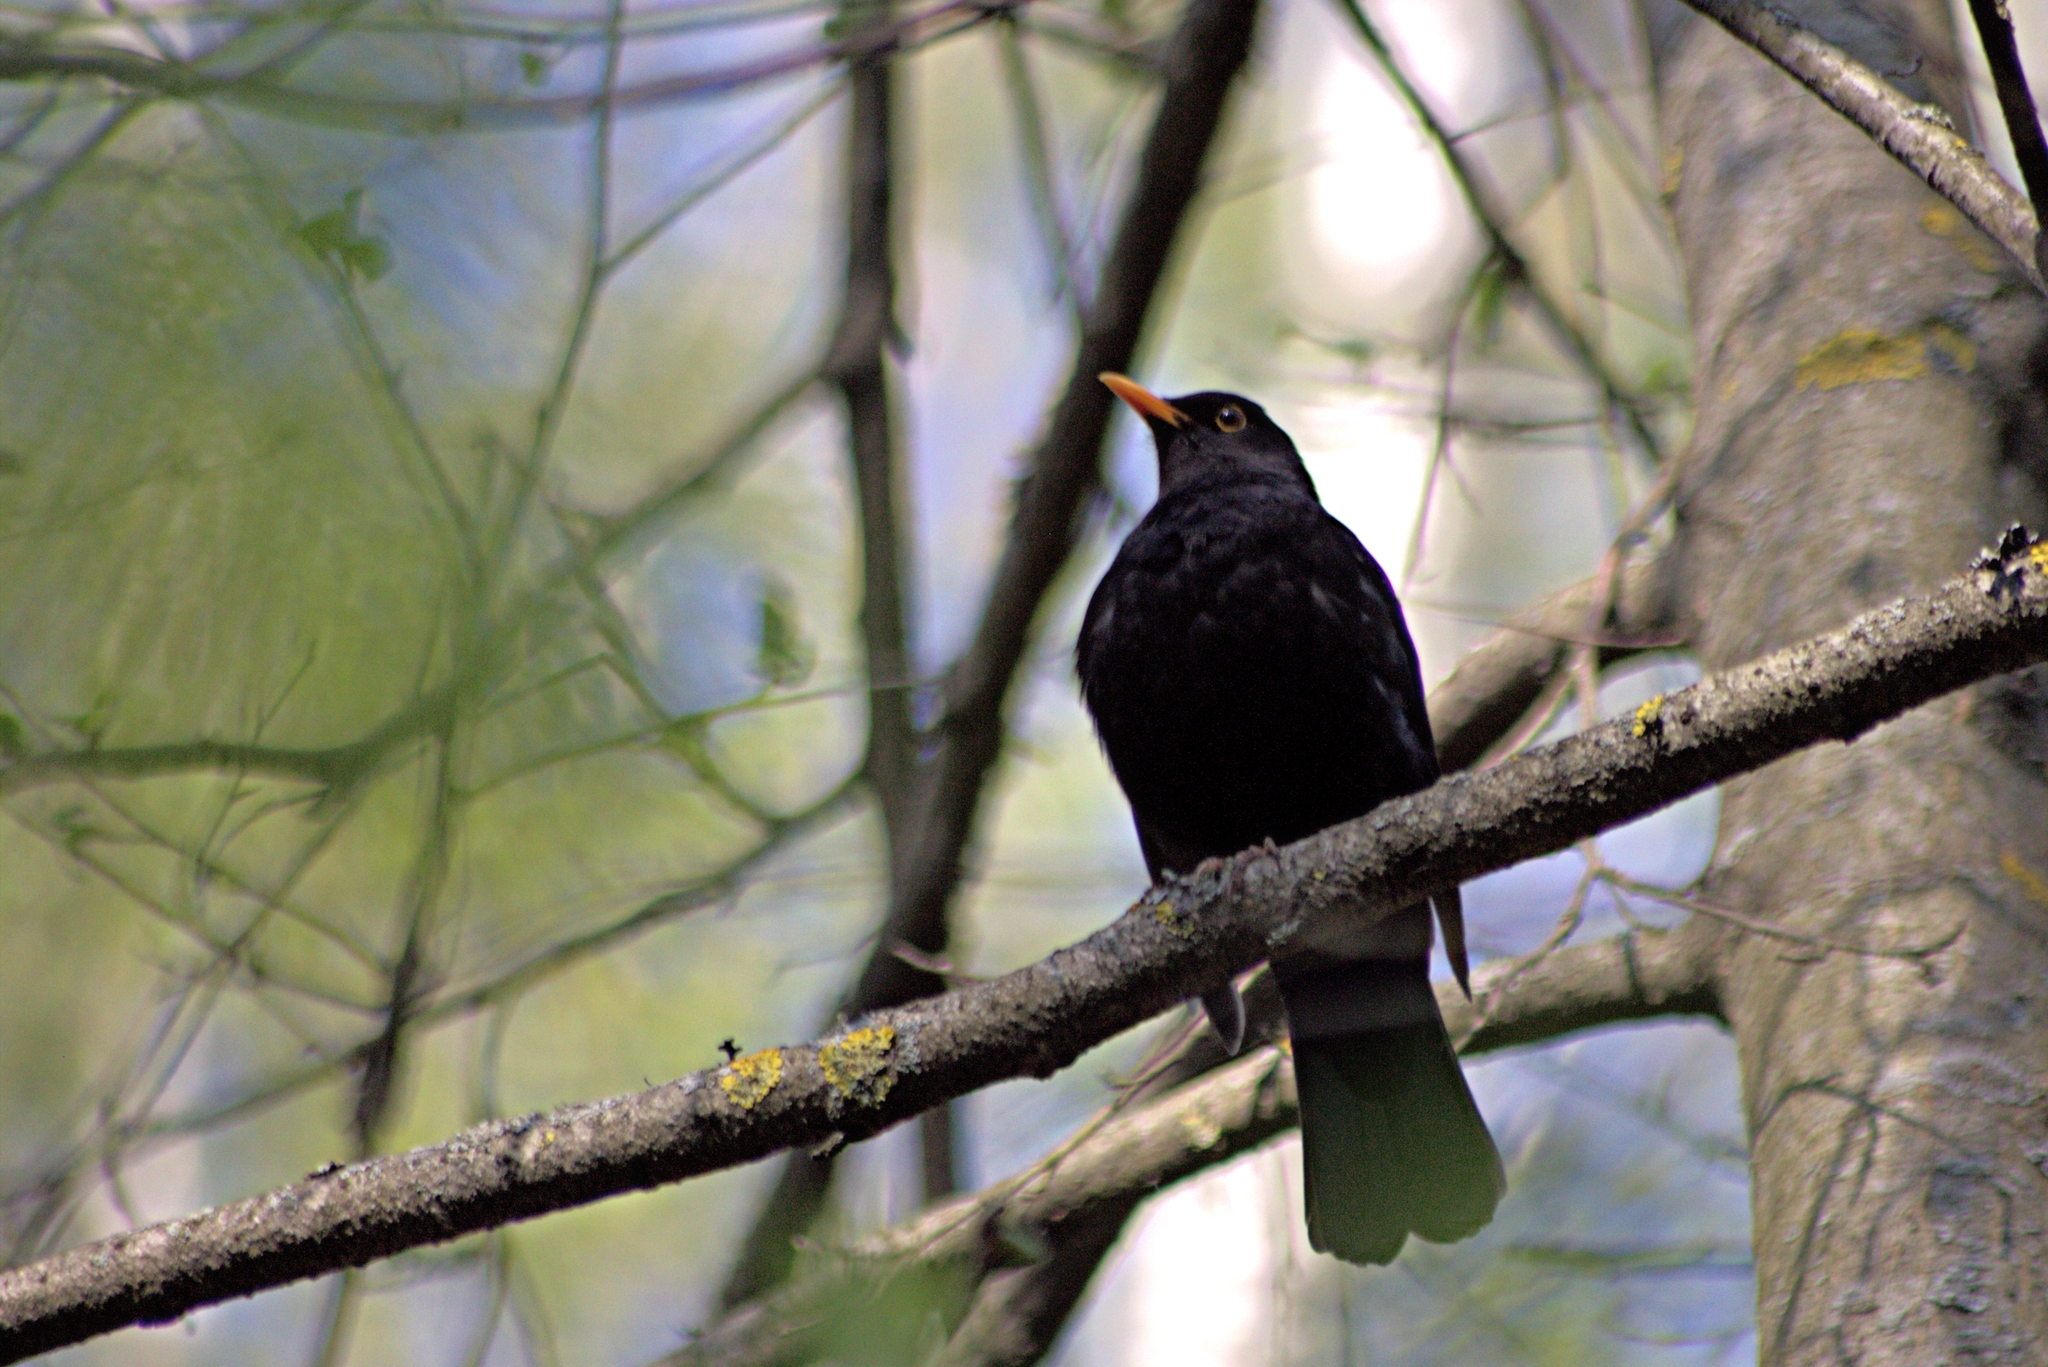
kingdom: Animalia
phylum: Chordata
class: Aves
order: Passeriformes
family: Turdidae
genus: Turdus
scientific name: Turdus merula
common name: Common blackbird
